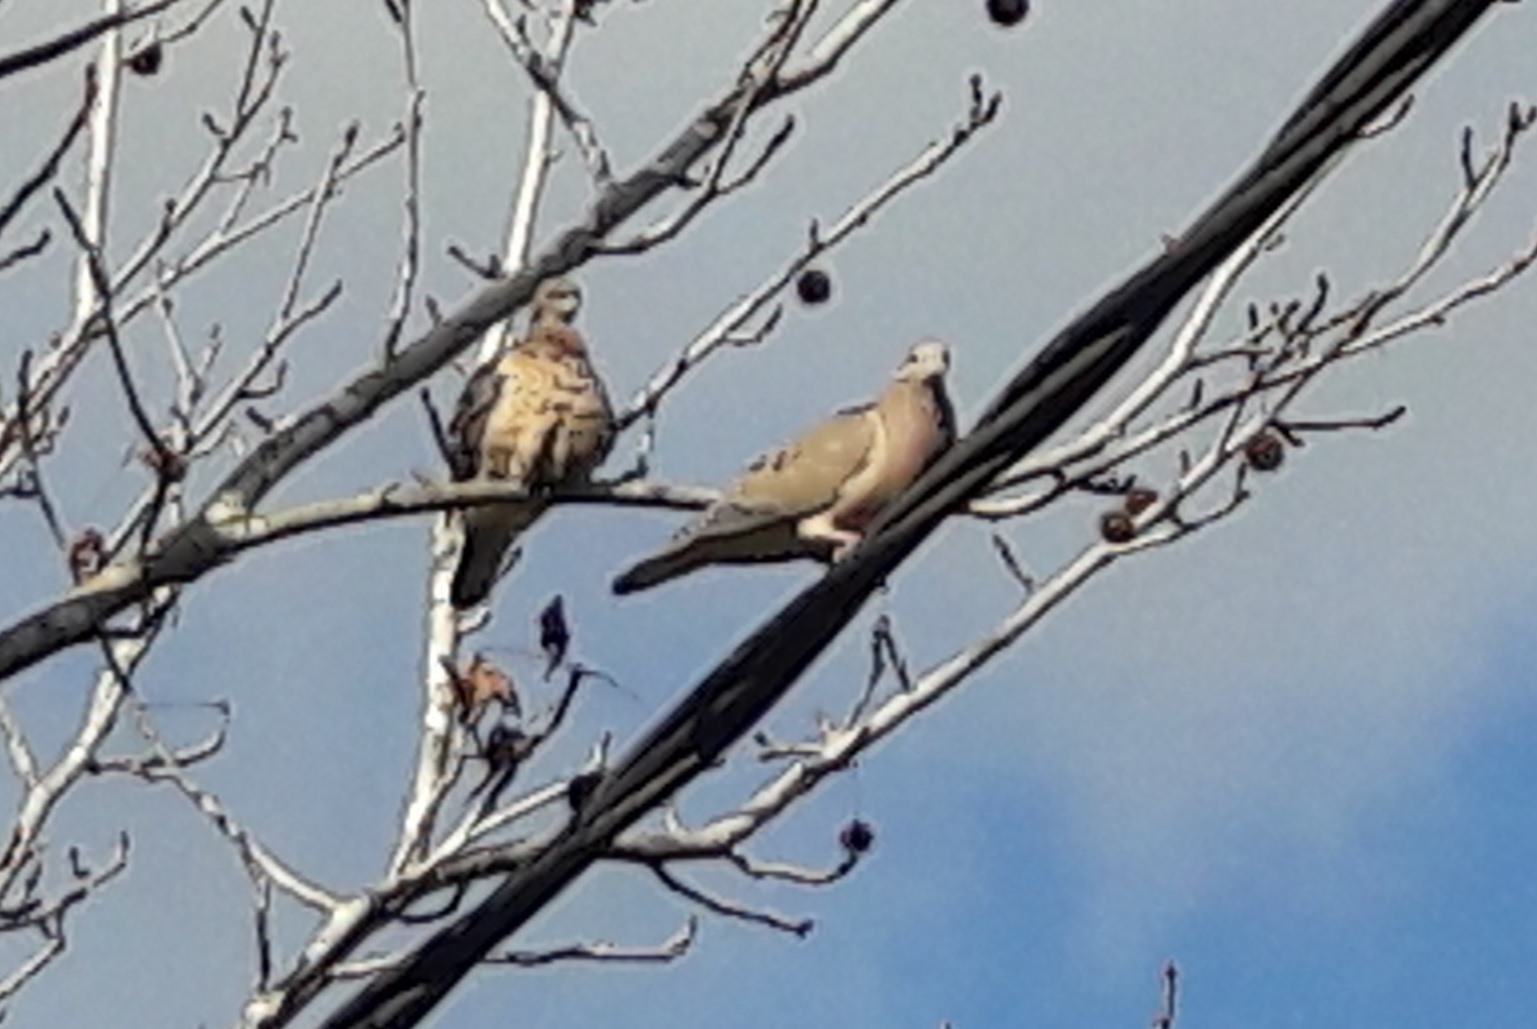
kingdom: Animalia
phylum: Chordata
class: Aves
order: Columbiformes
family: Columbidae
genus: Zenaida
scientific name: Zenaida auriculata
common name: Eared dove
